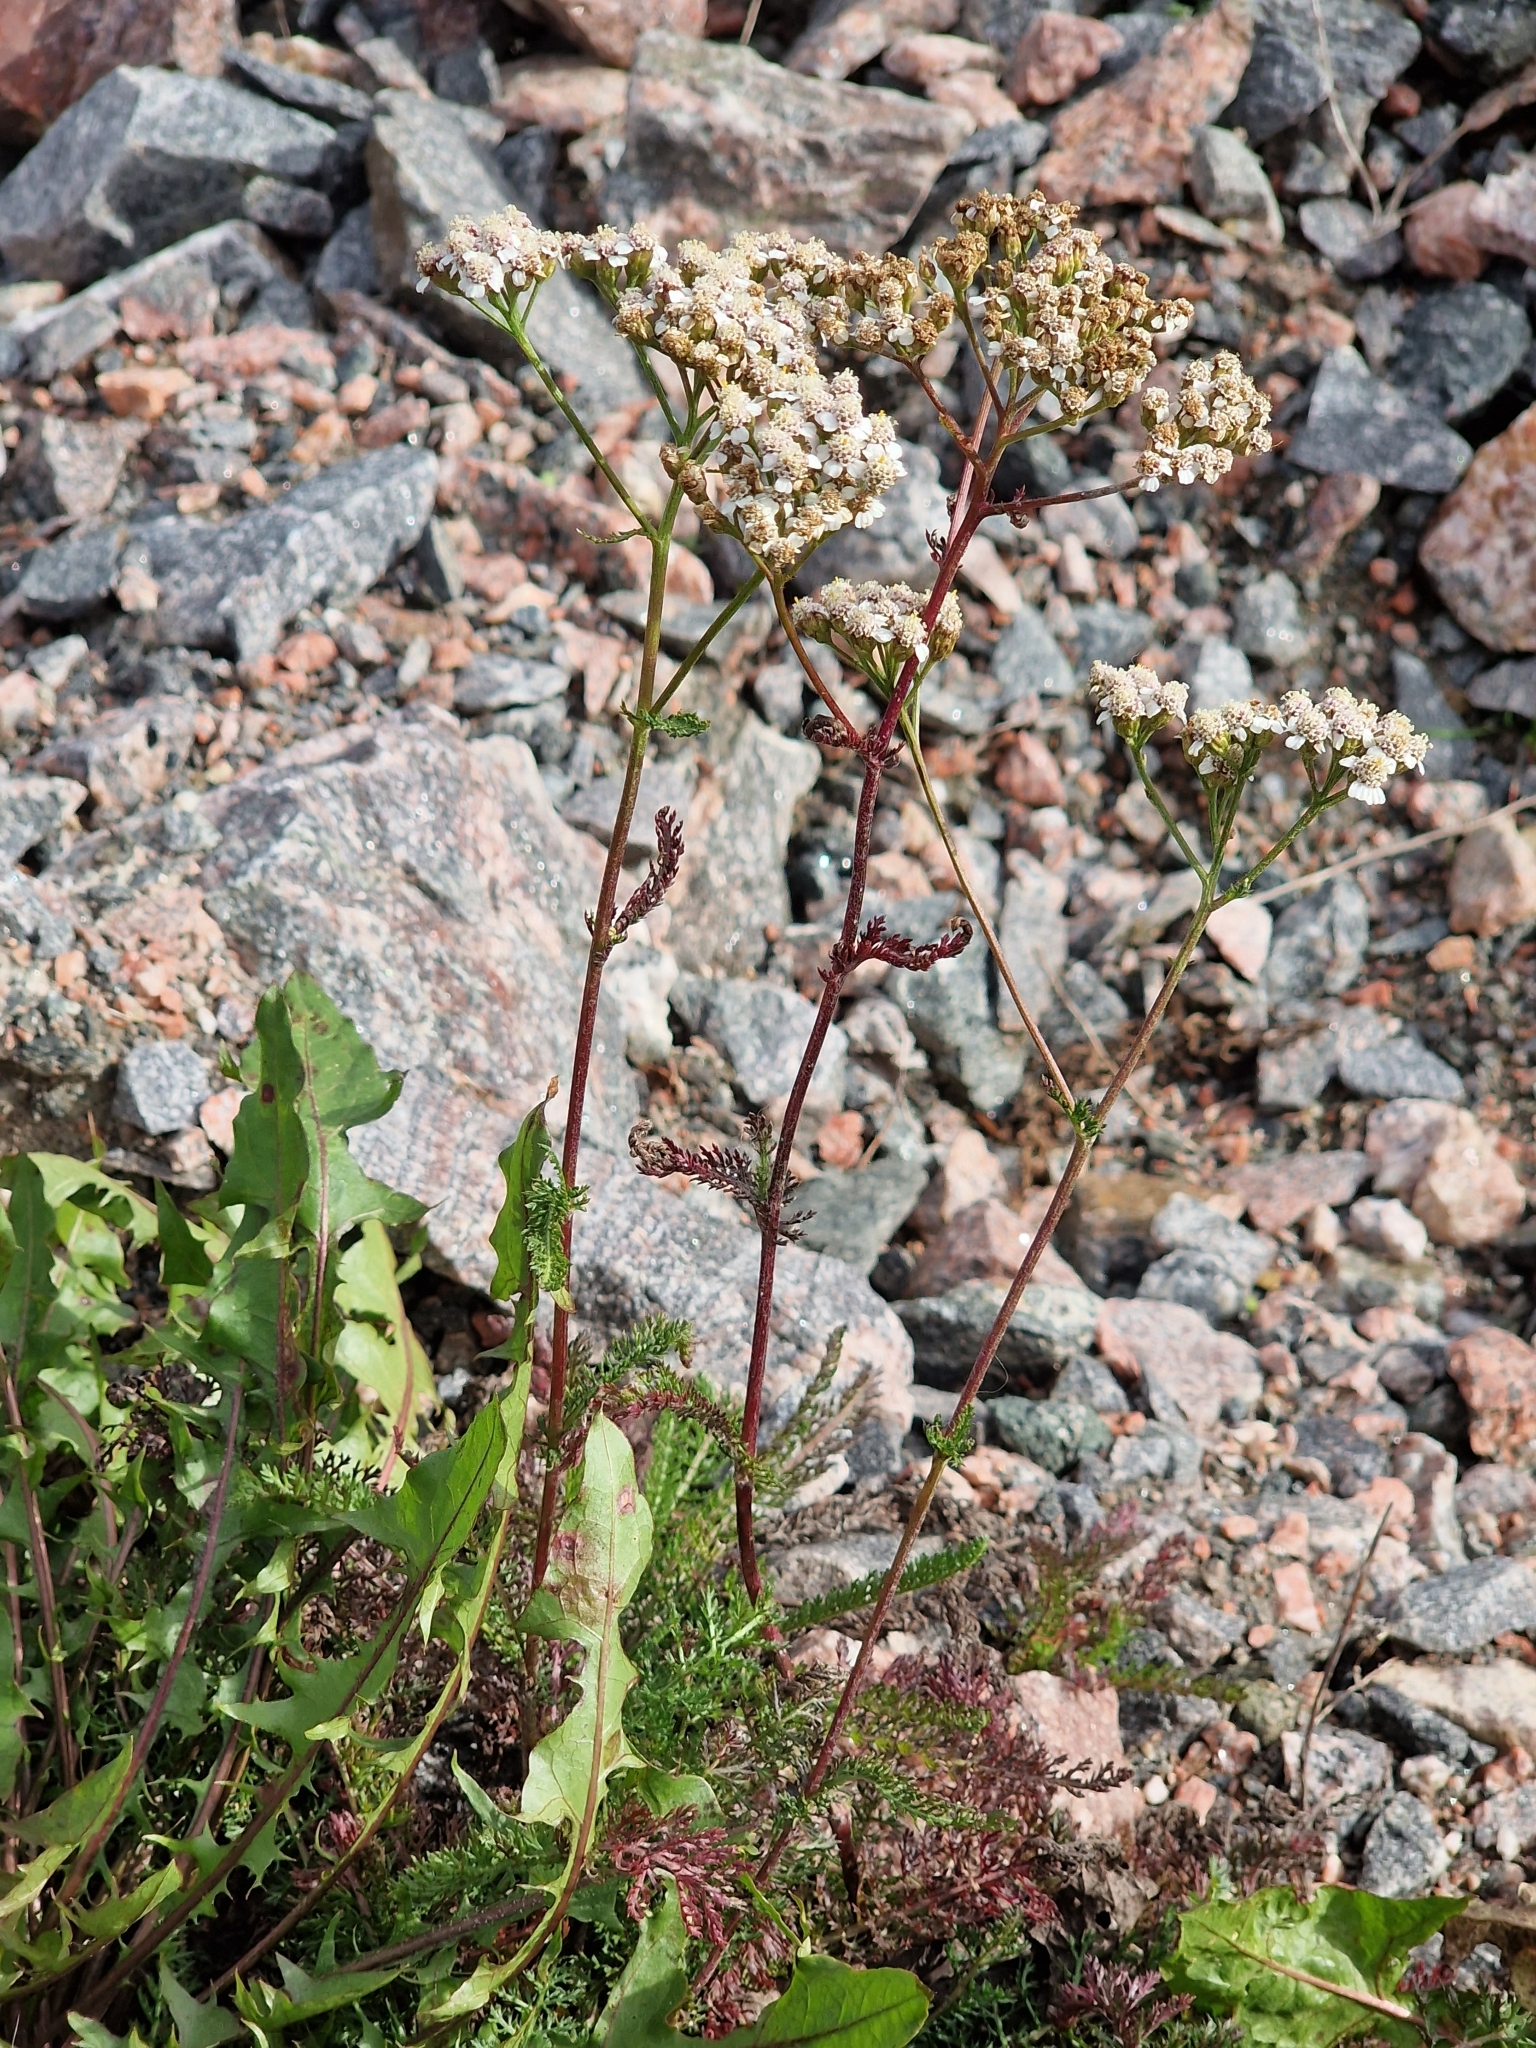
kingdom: Plantae
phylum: Tracheophyta
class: Magnoliopsida
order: Asterales
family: Asteraceae
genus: Achillea
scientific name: Achillea millefolium
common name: Yarrow
